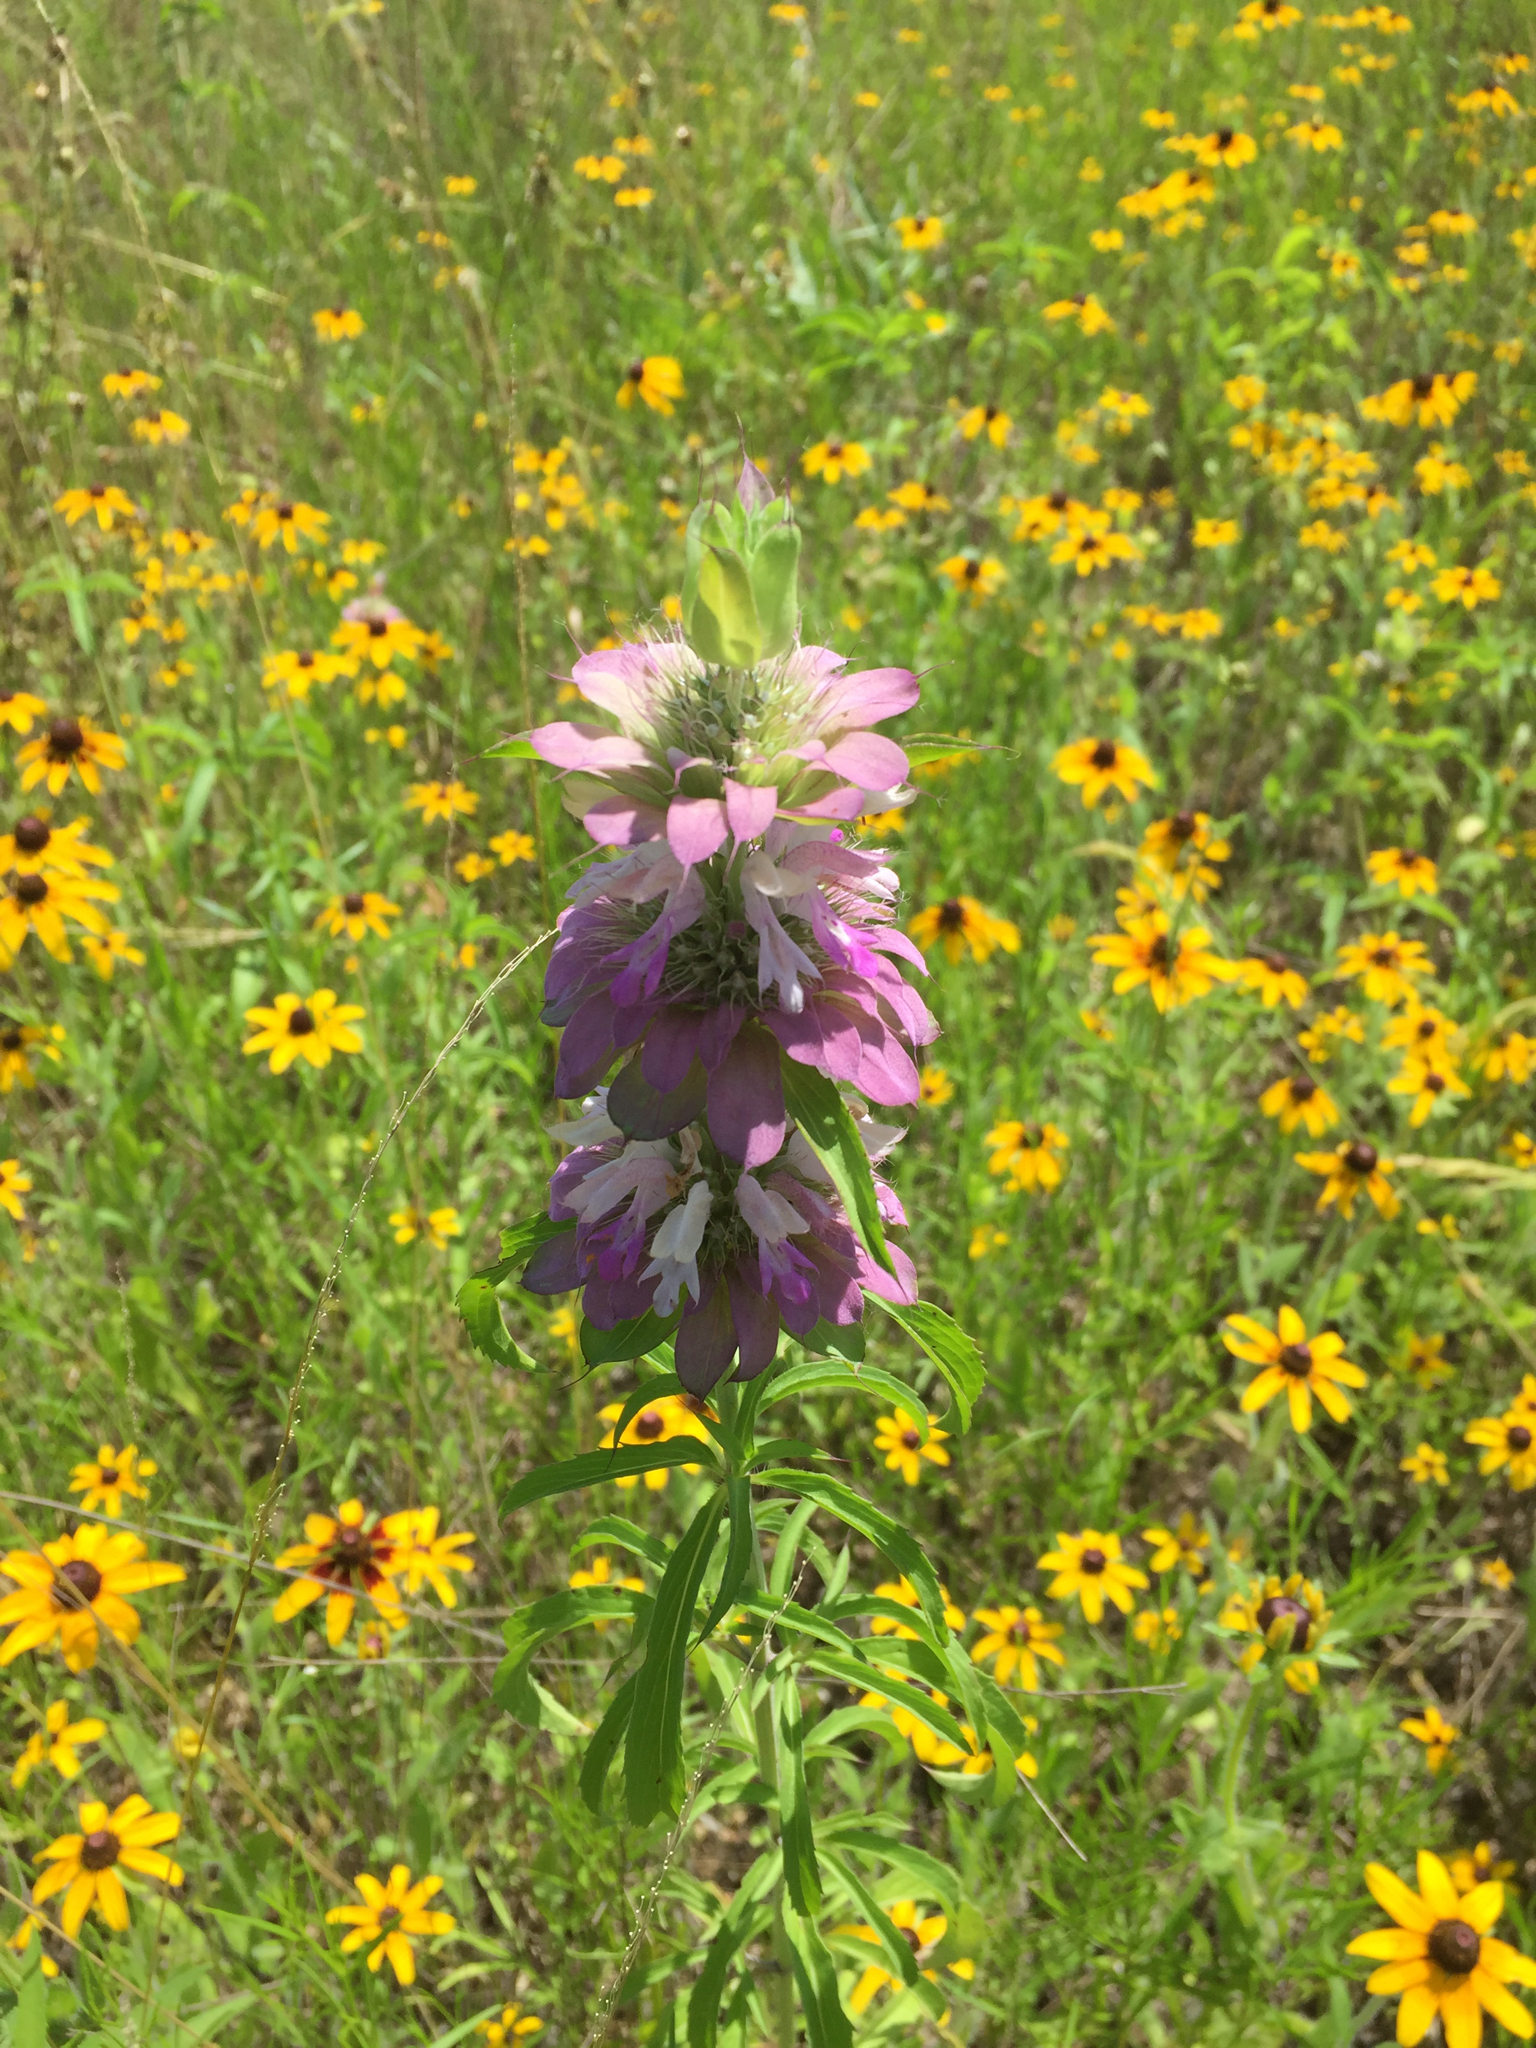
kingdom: Plantae
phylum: Tracheophyta
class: Magnoliopsida
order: Lamiales
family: Lamiaceae
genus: Monarda
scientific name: Monarda citriodora
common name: Lemon beebalm
